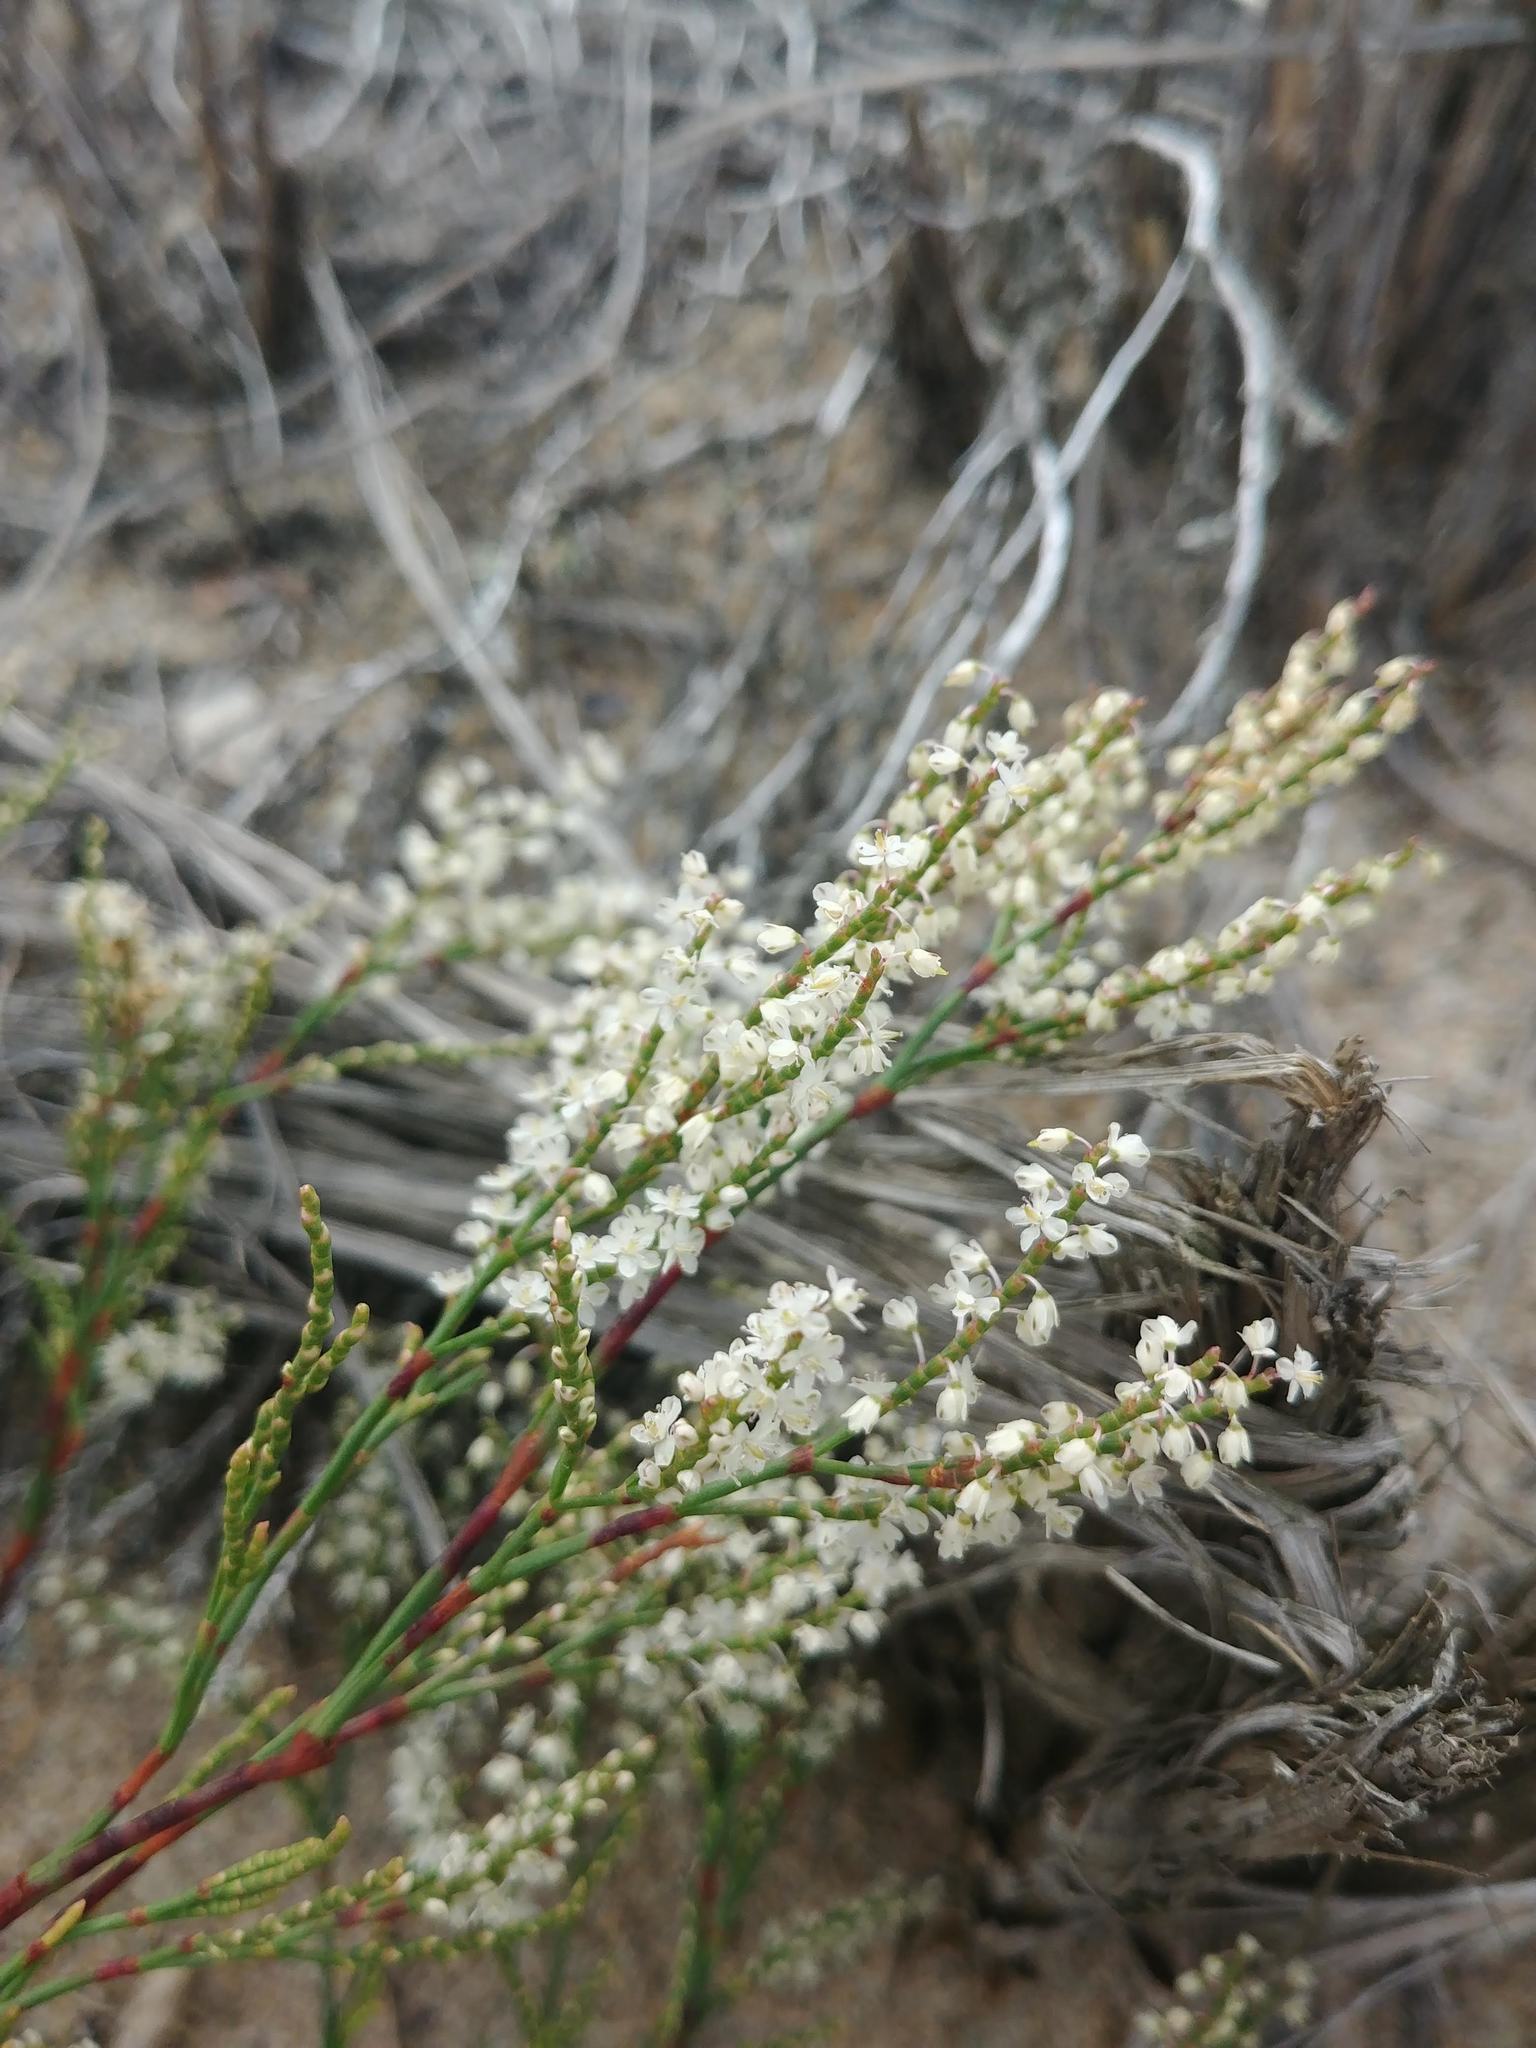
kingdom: Plantae
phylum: Tracheophyta
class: Magnoliopsida
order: Caryophyllales
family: Polygonaceae
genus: Polygonella
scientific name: Polygonella articulata
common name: Coastal jointweed
